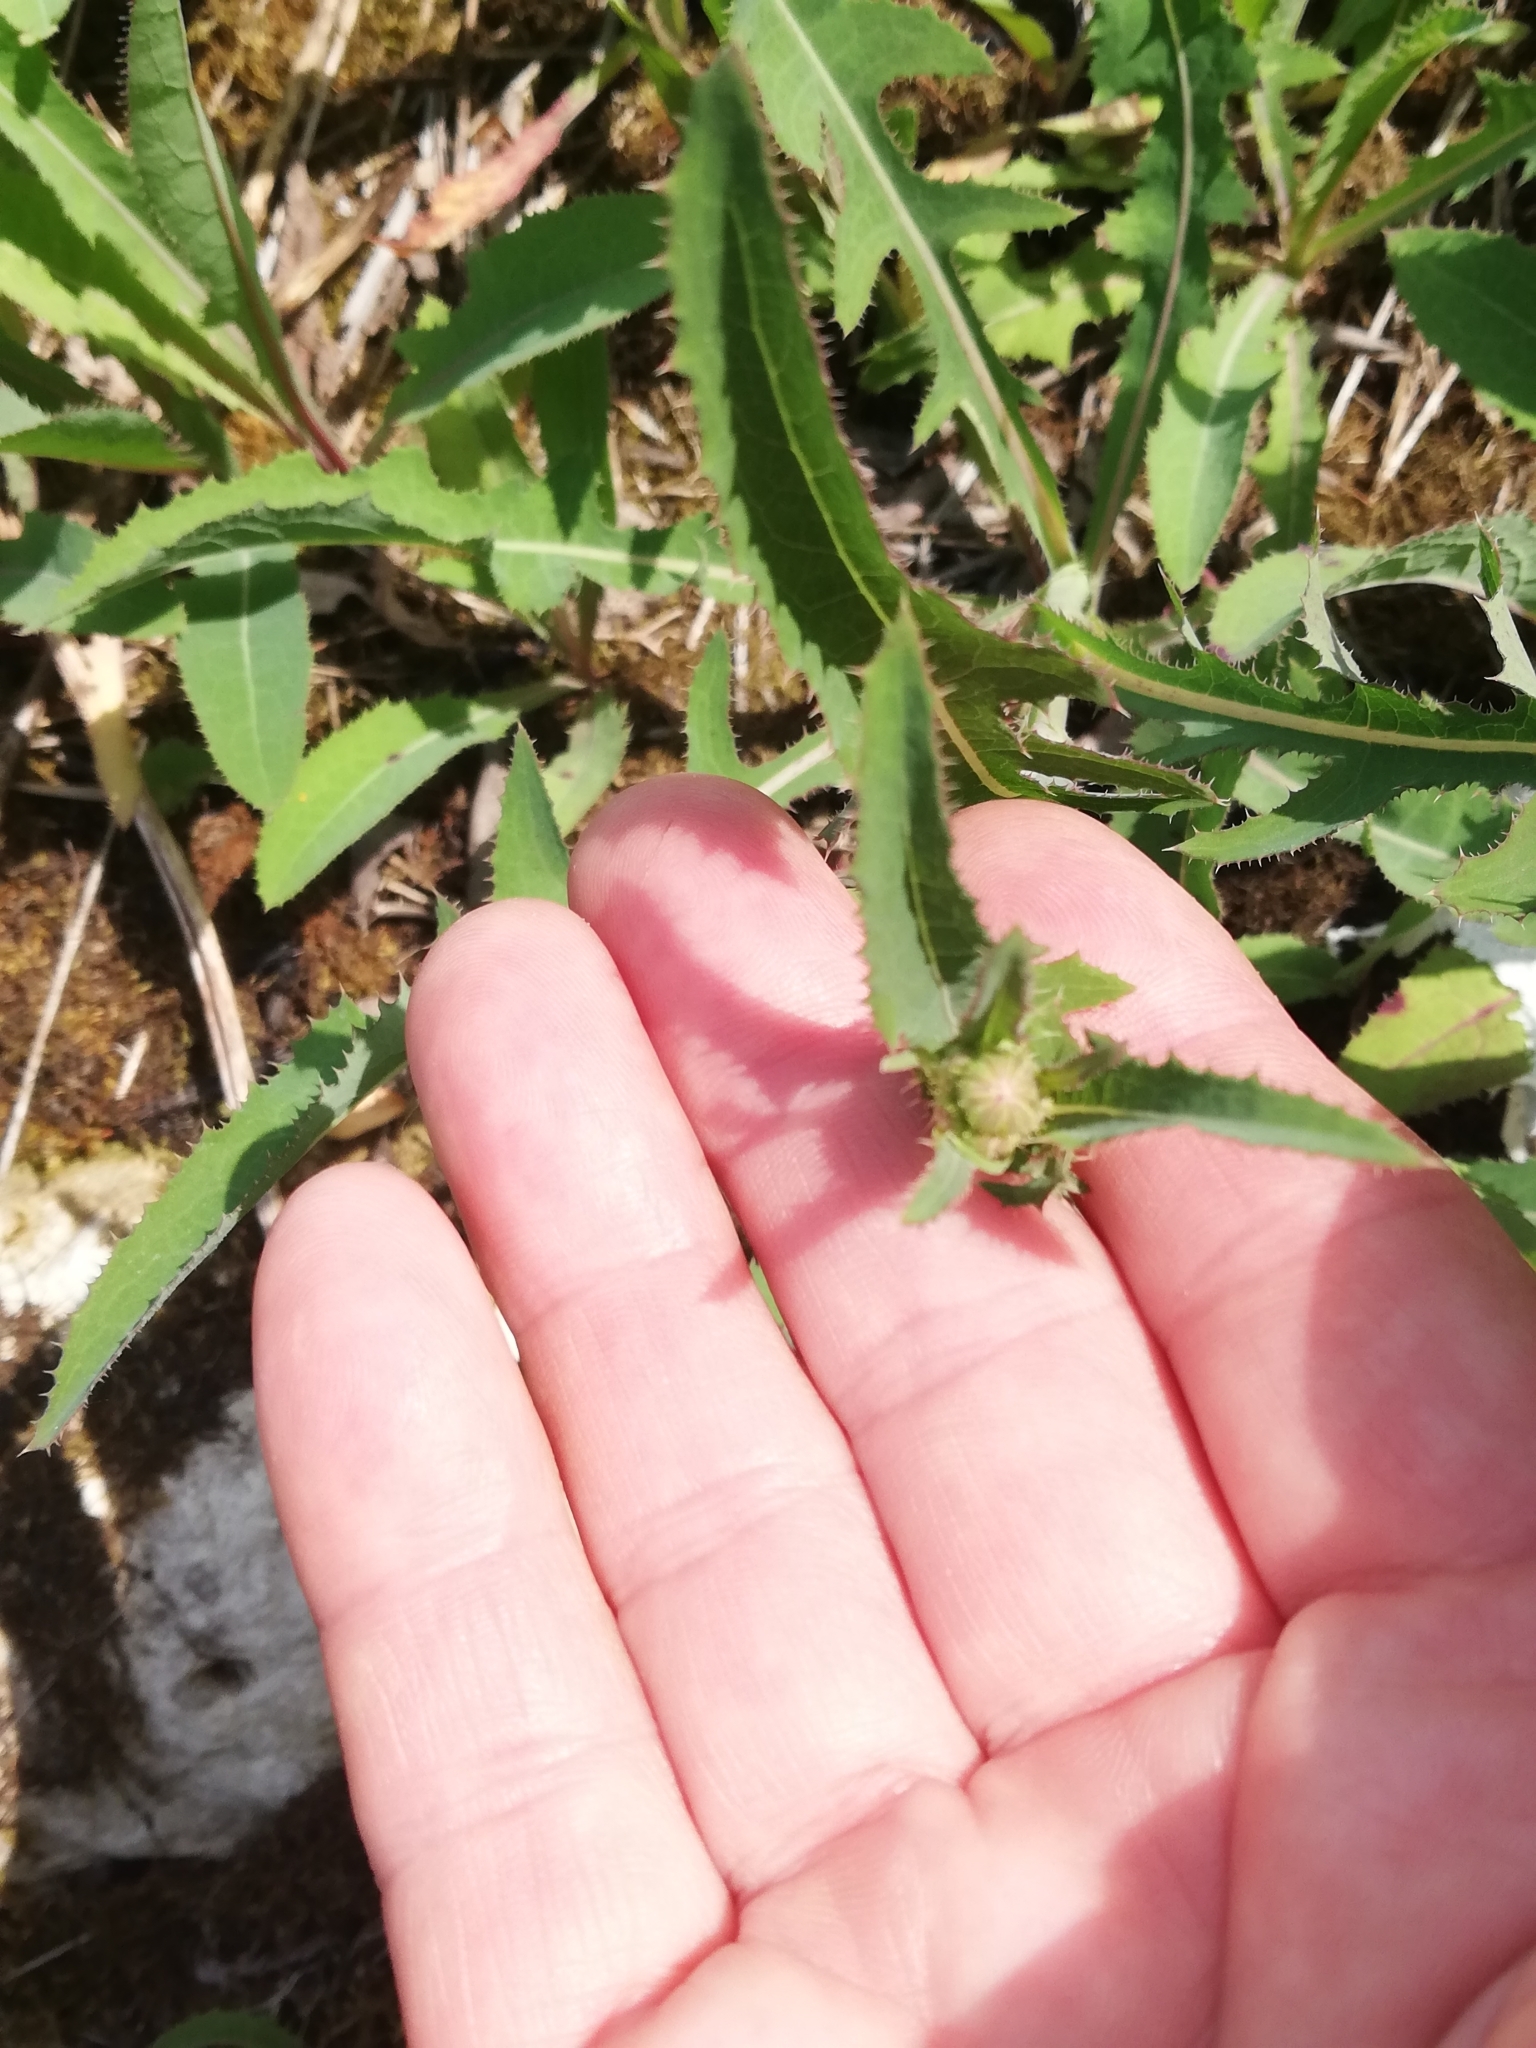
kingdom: Plantae
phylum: Tracheophyta
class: Magnoliopsida
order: Asterales
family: Asteraceae
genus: Sonchus
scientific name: Sonchus arvensis
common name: Perennial sow-thistle
